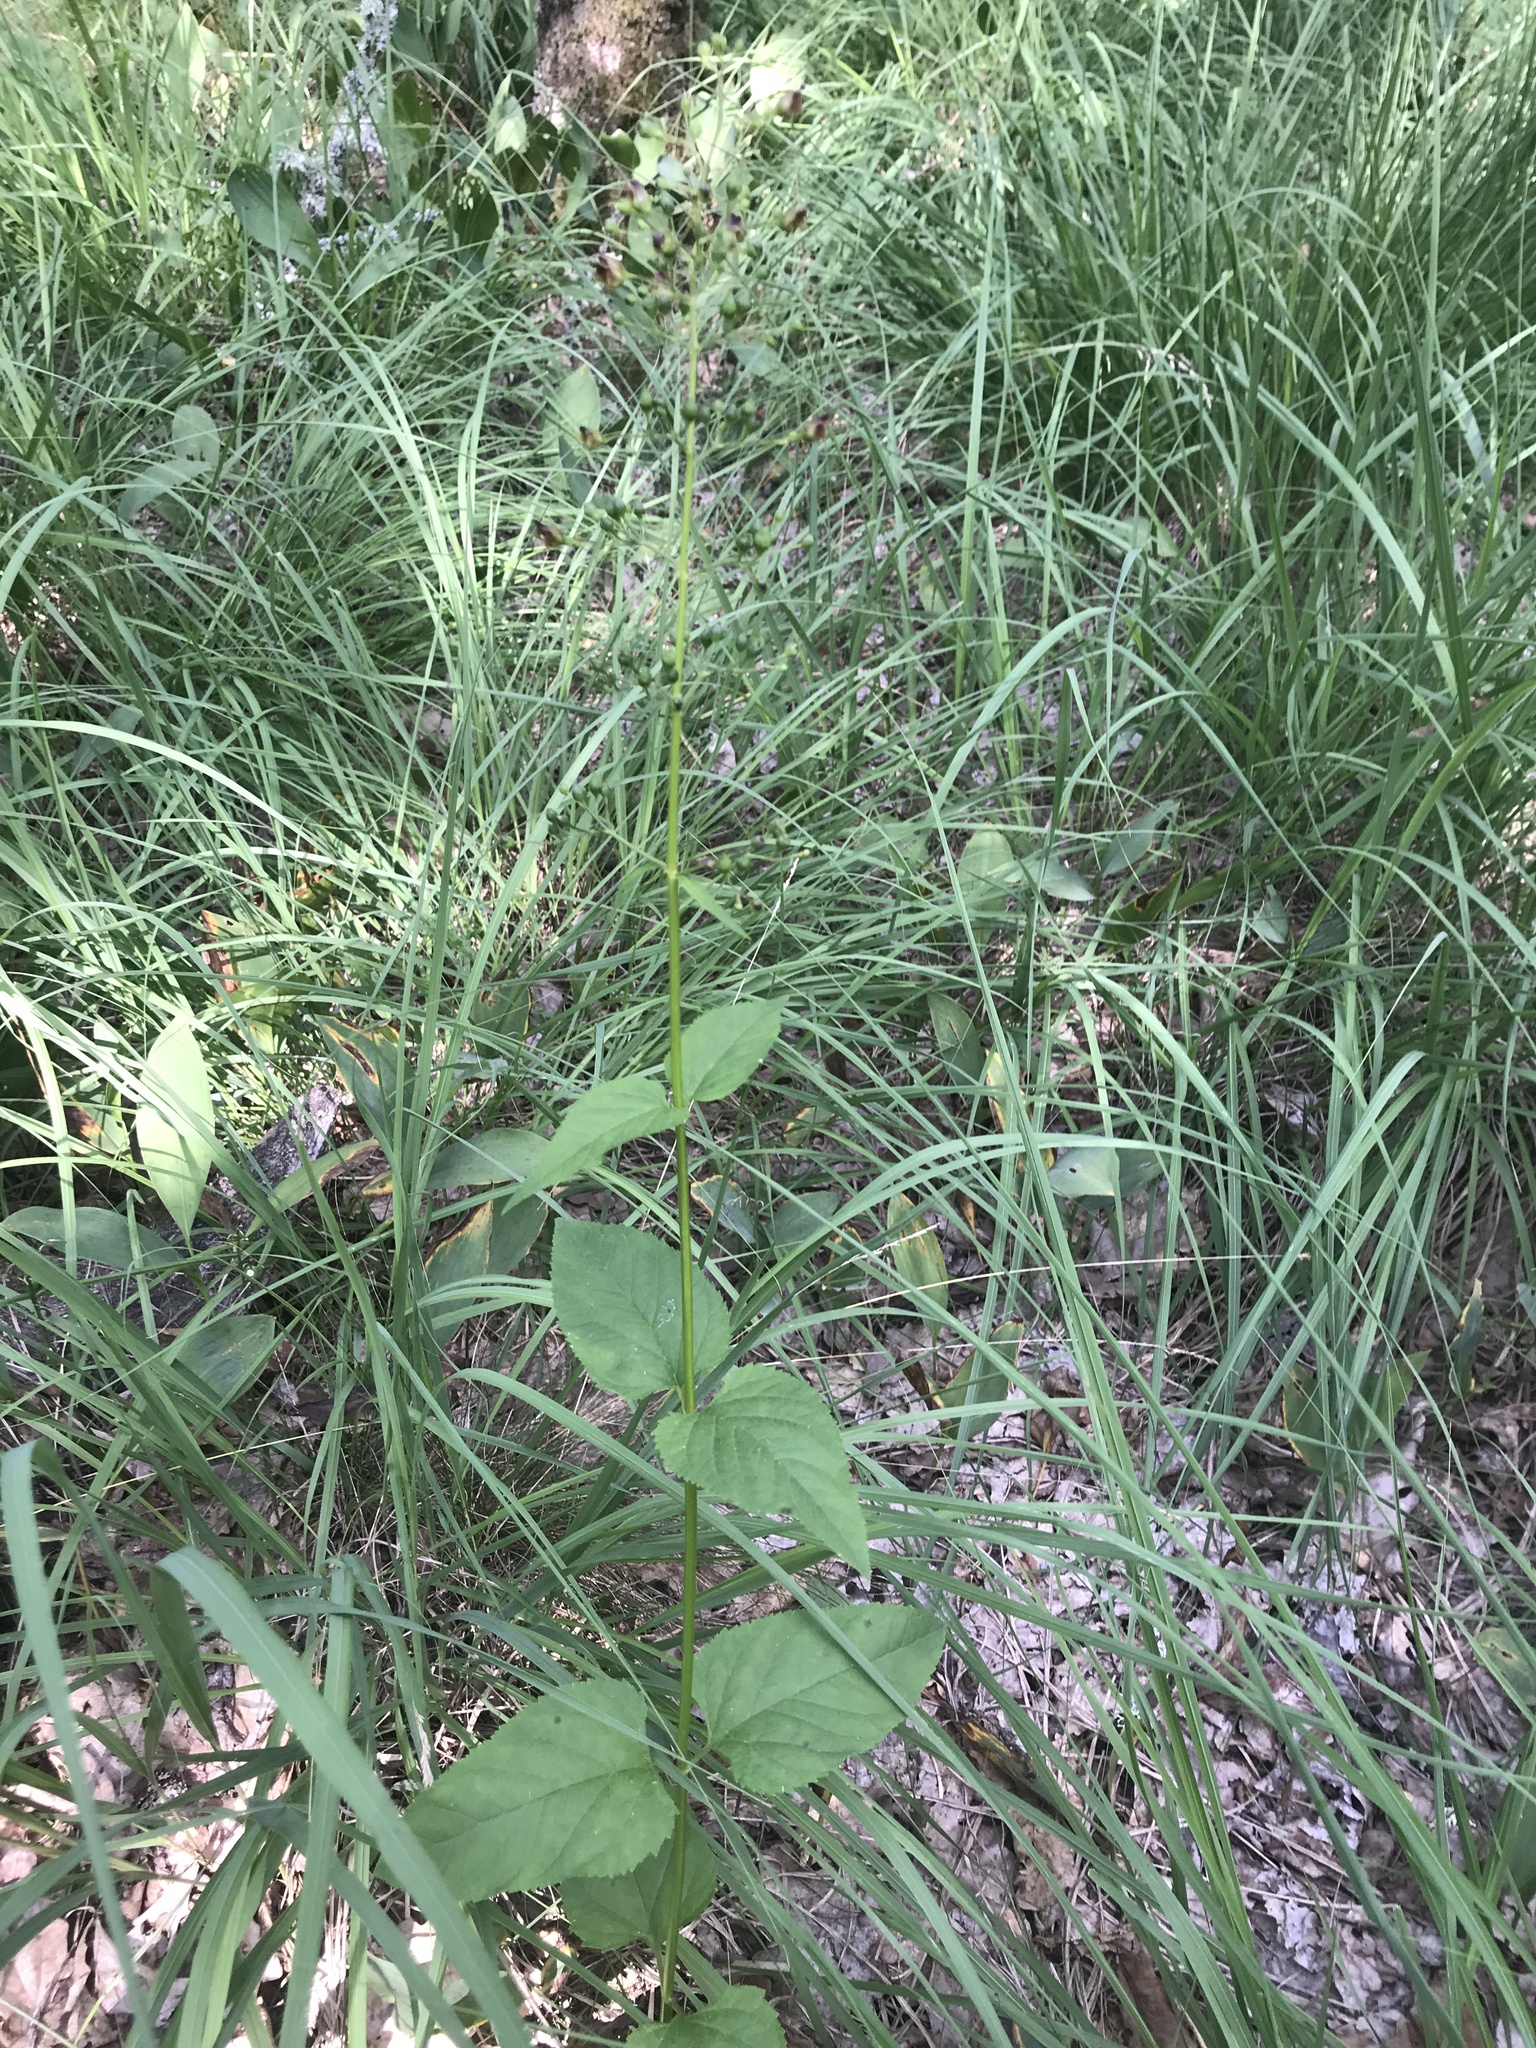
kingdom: Plantae
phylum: Tracheophyta
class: Magnoliopsida
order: Lamiales
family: Scrophulariaceae
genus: Scrophularia
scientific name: Scrophularia nodosa
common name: Common figwort
